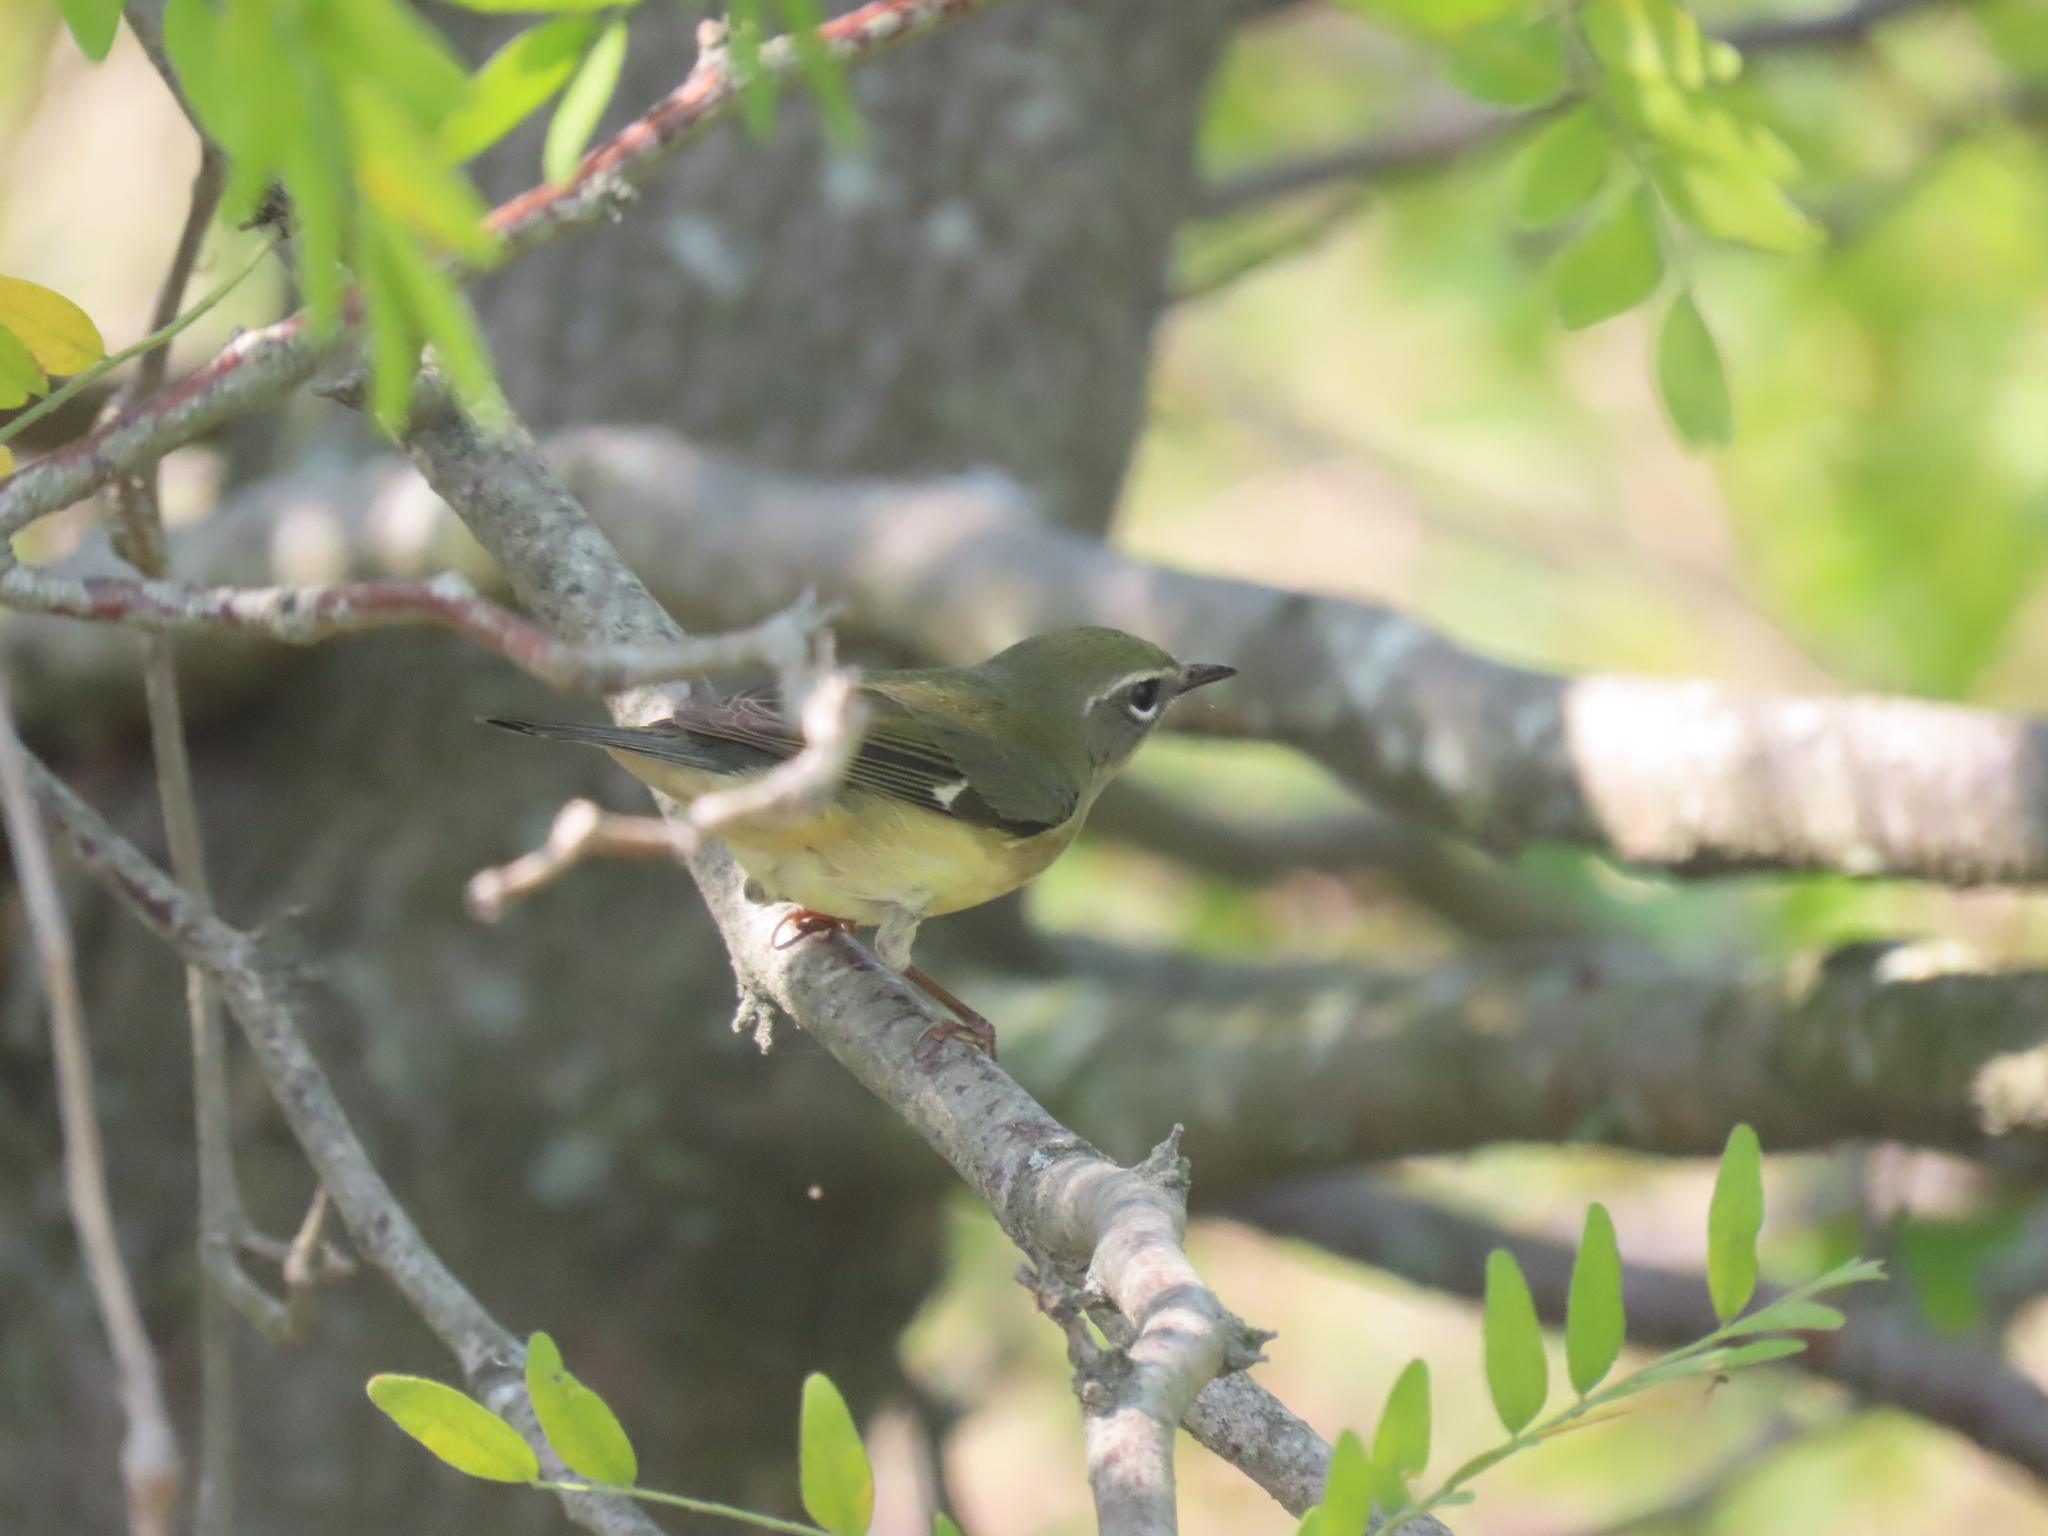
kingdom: Animalia
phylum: Chordata
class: Aves
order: Passeriformes
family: Parulidae
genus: Setophaga
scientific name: Setophaga caerulescens
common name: Black-throated blue warbler
